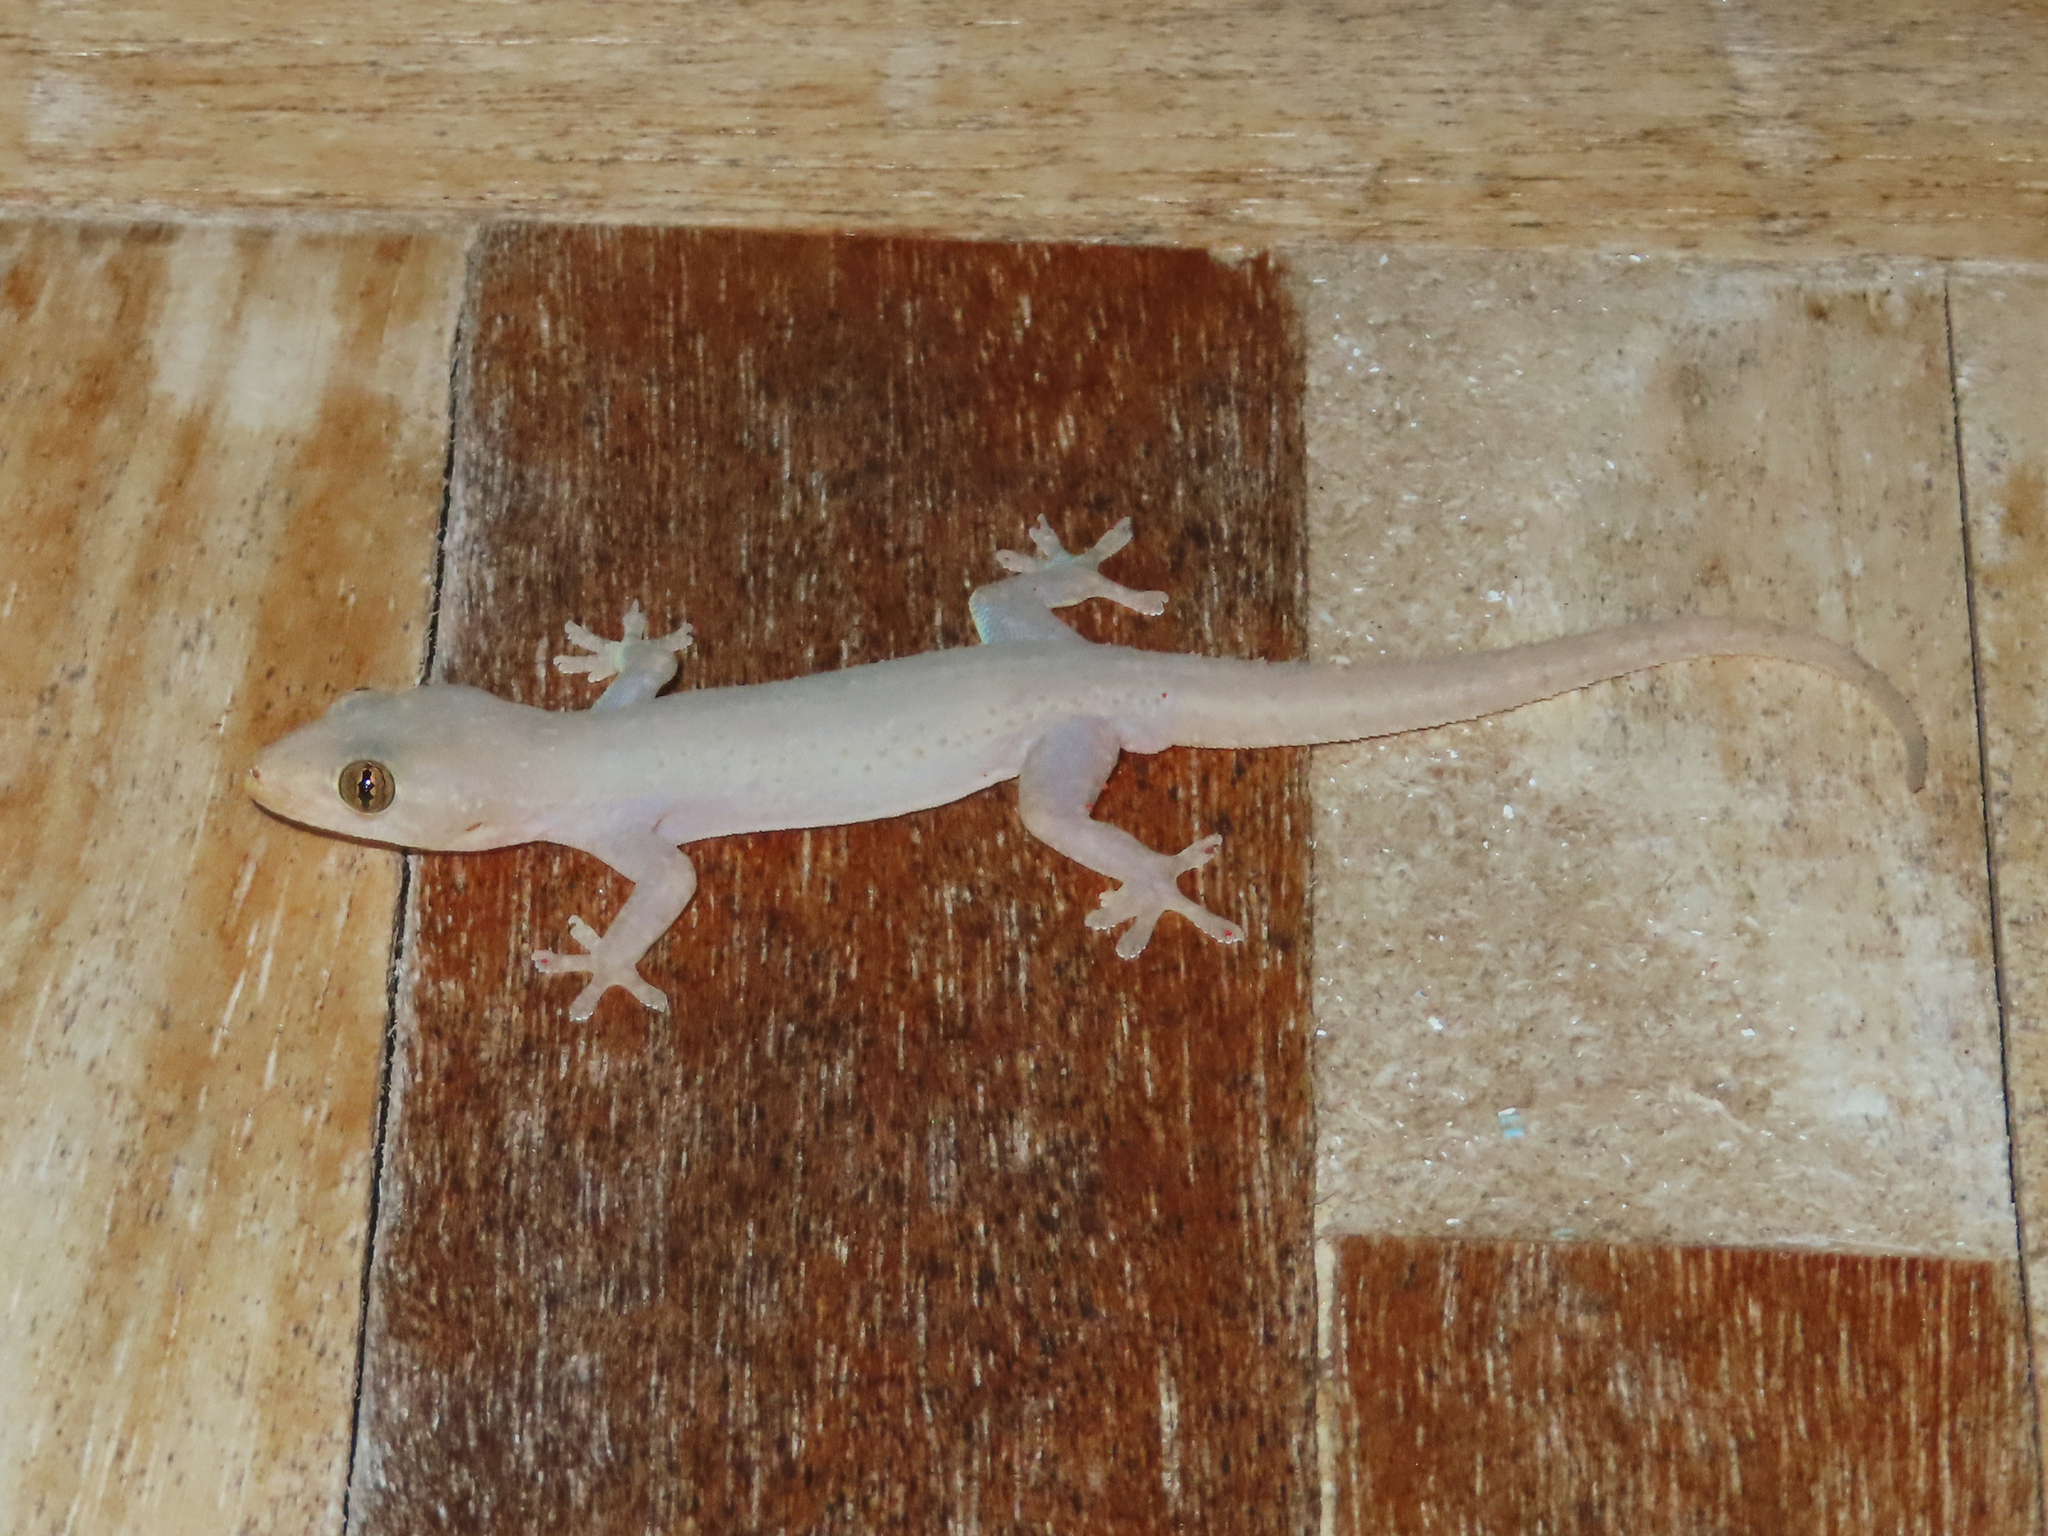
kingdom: Animalia
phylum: Chordata
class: Squamata
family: Gekkonidae
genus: Hemidactylus
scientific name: Hemidactylus frenatus
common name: Common house gecko
